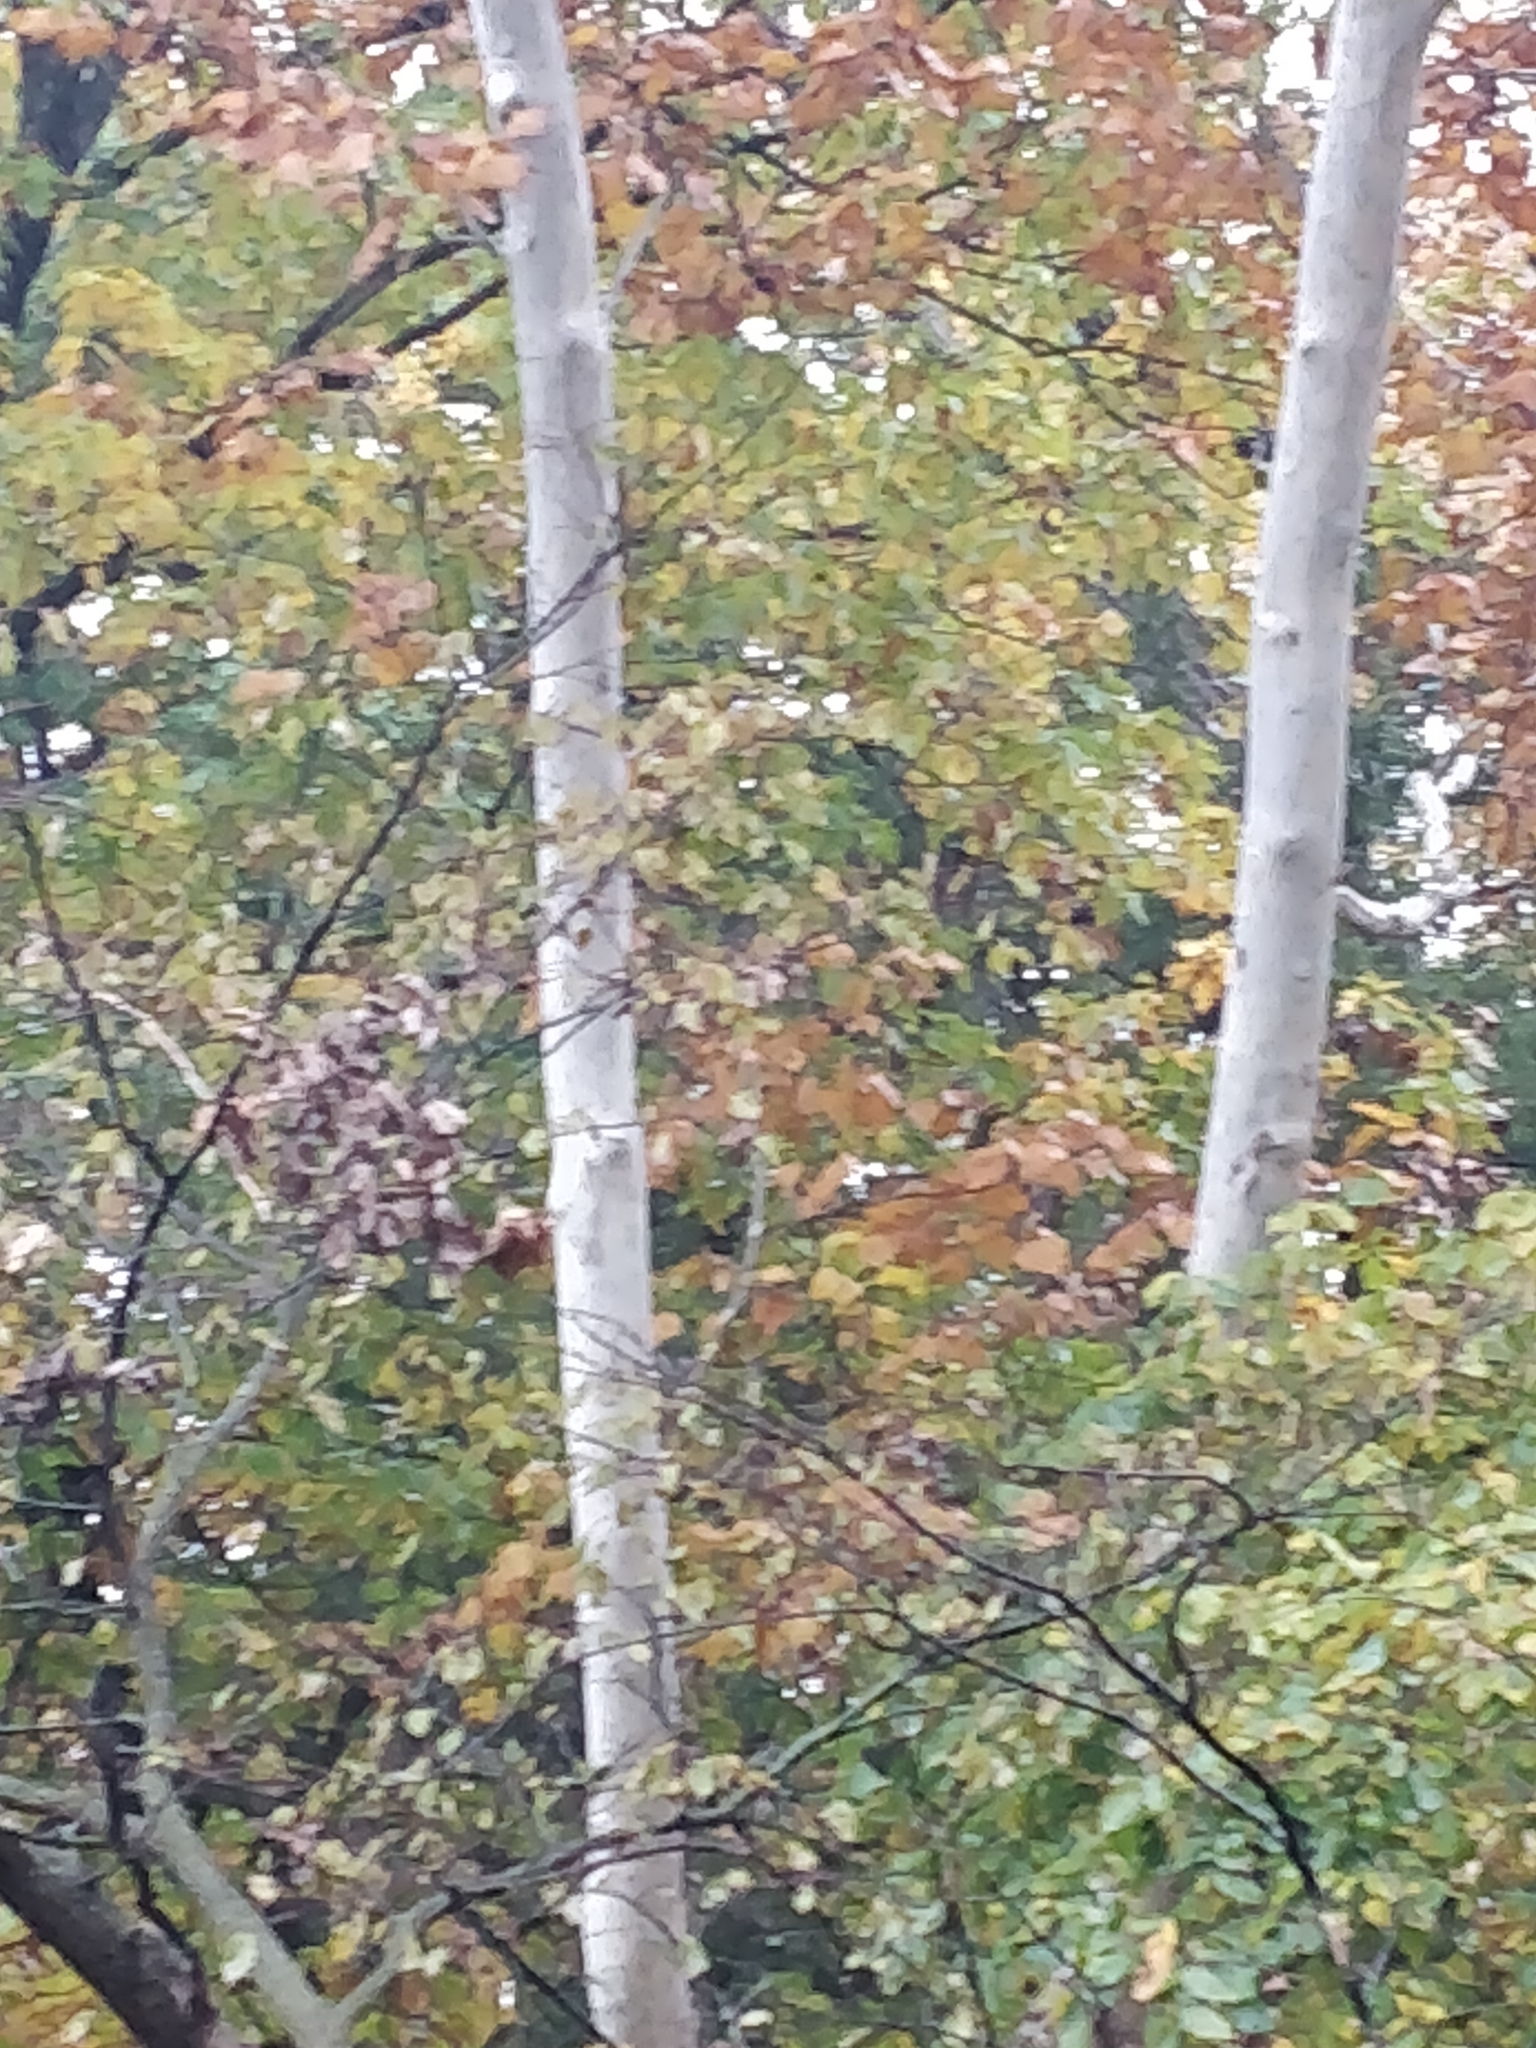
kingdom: Plantae
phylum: Tracheophyta
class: Magnoliopsida
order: Proteales
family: Platanaceae
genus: Platanus
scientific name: Platanus occidentalis
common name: American sycamore
